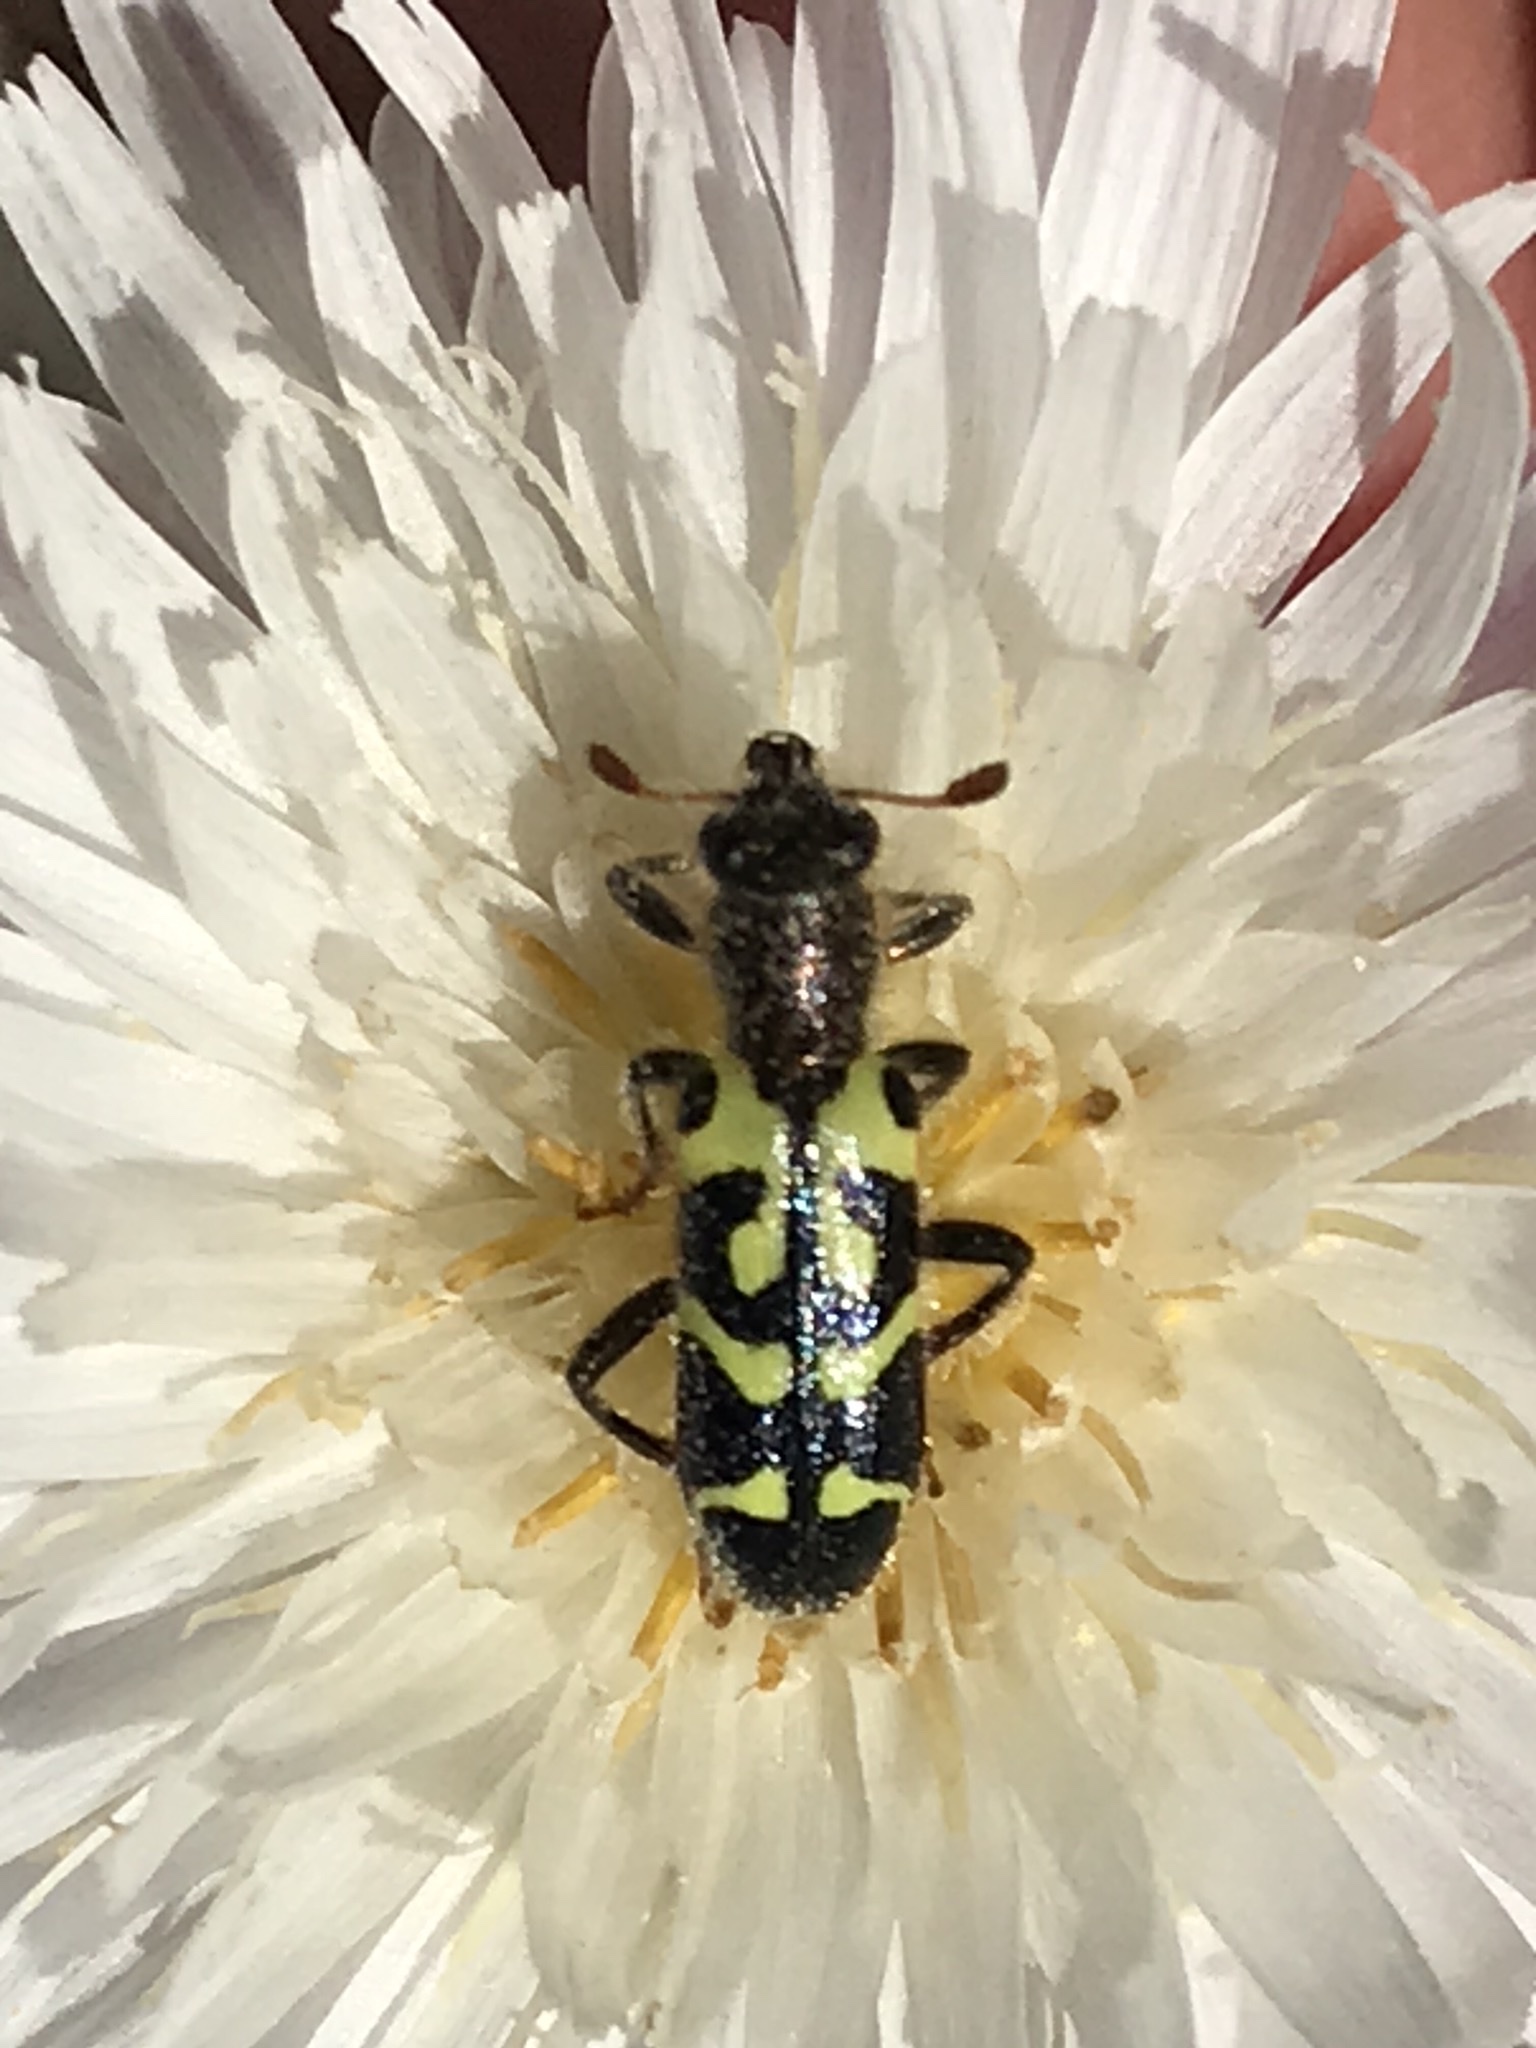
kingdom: Animalia
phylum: Arthropoda
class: Insecta
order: Coleoptera
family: Cleridae
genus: Trichodes
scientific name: Trichodes ornatus
